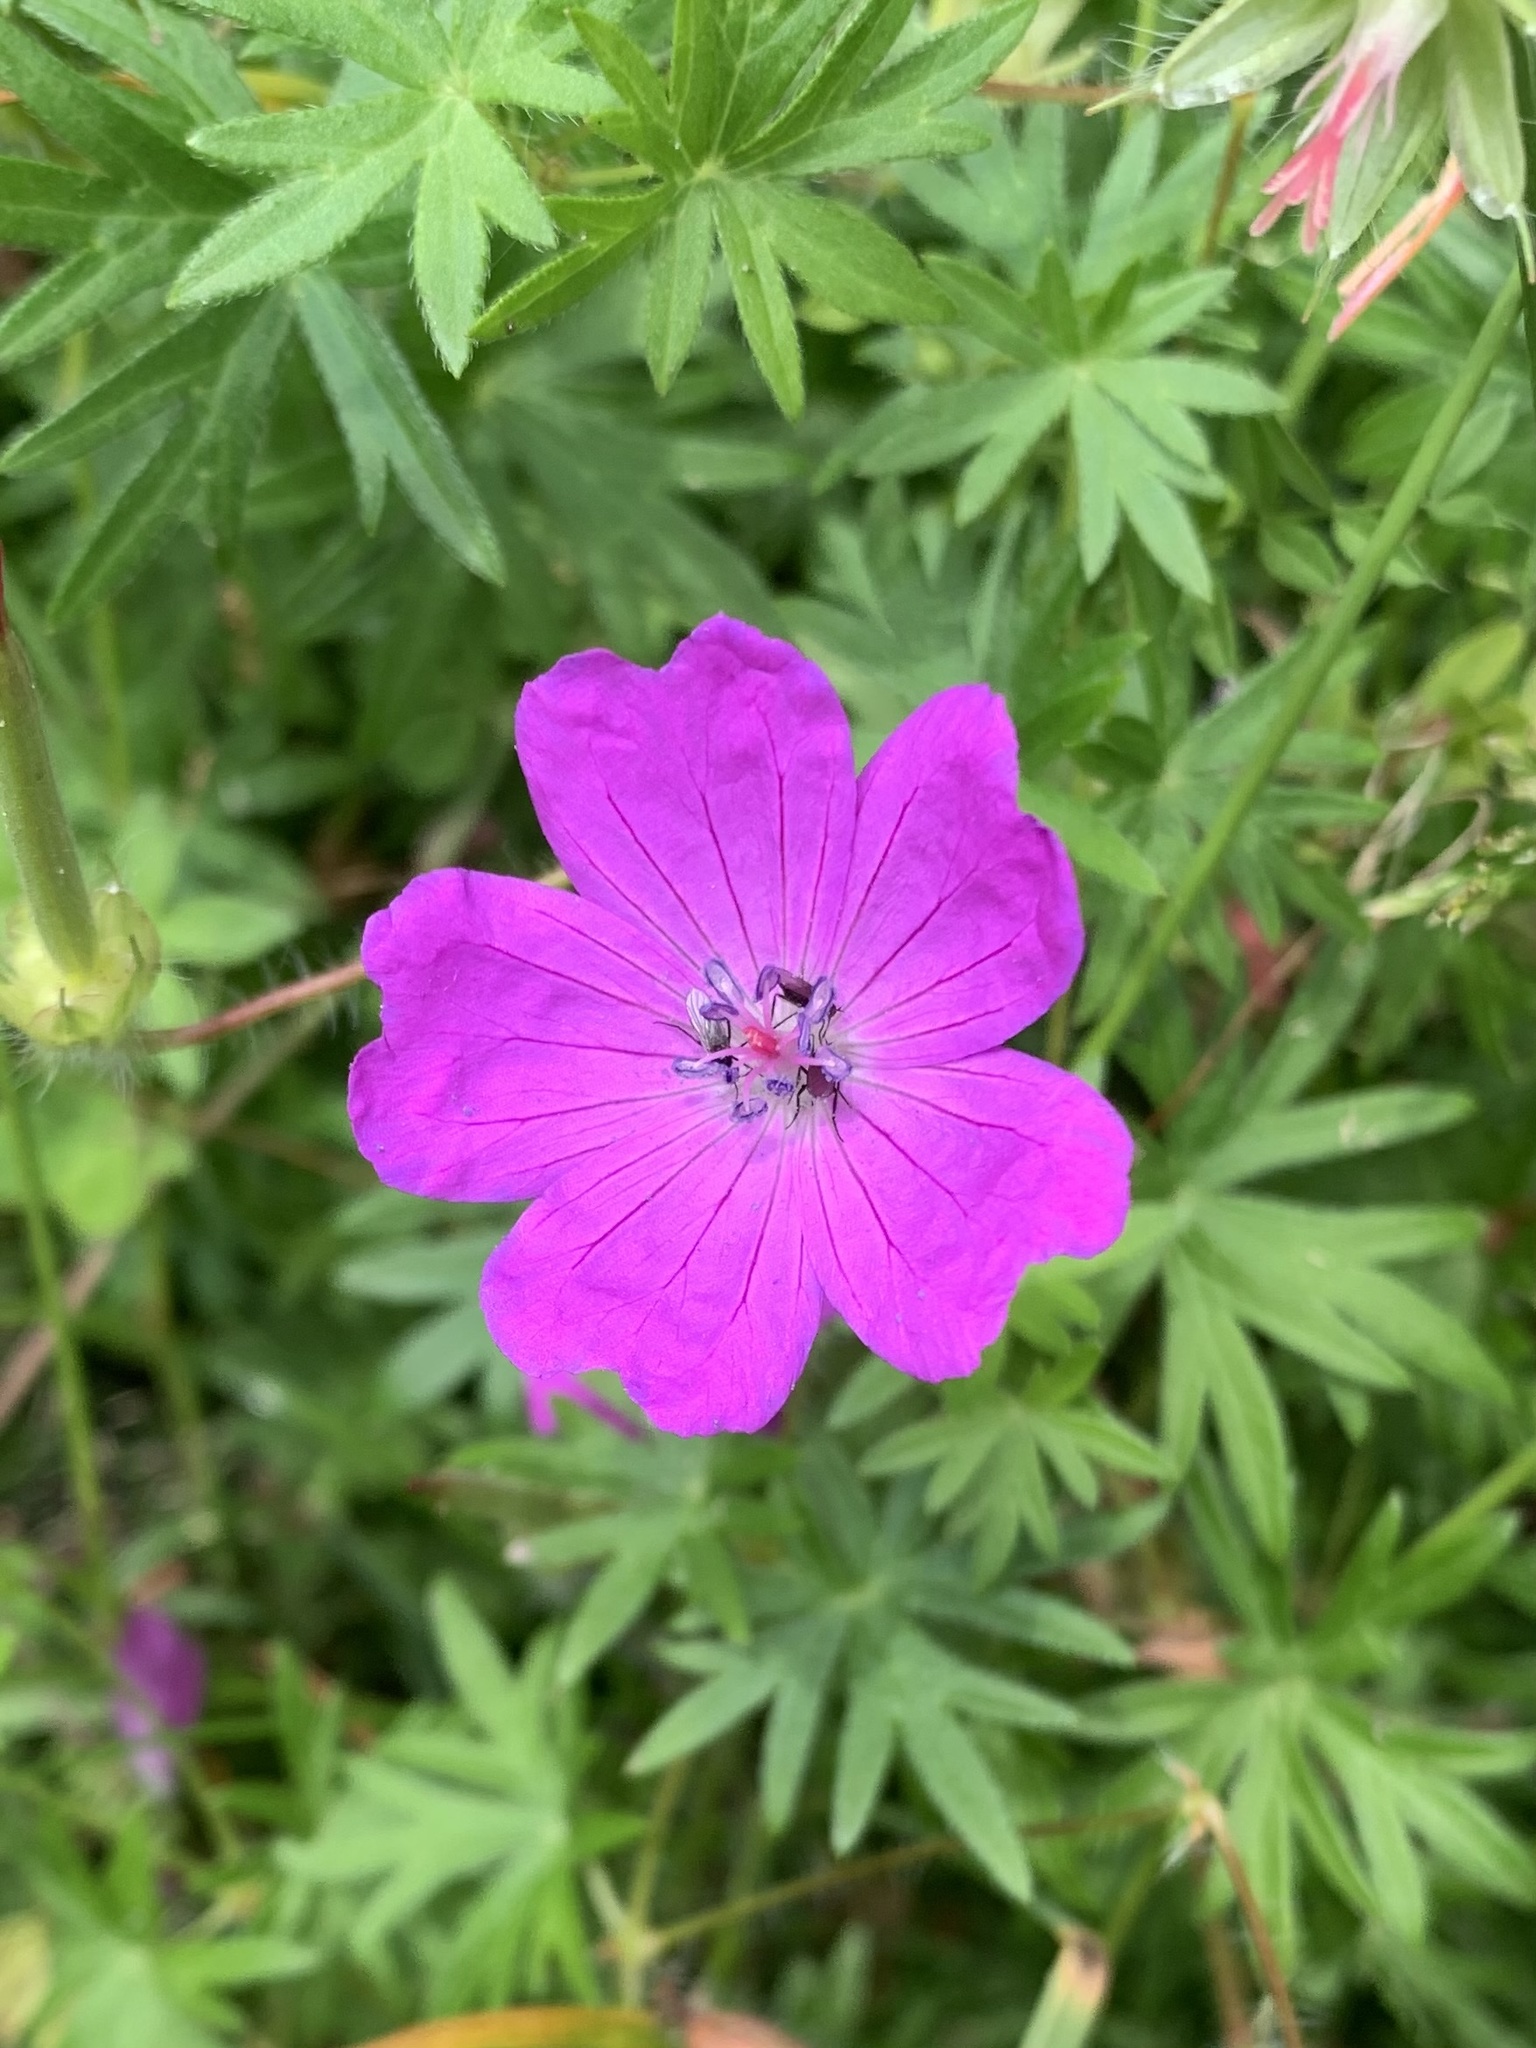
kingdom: Plantae
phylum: Tracheophyta
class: Magnoliopsida
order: Geraniales
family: Geraniaceae
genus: Geranium
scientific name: Geranium sanguineum
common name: Bloody crane's-bill
